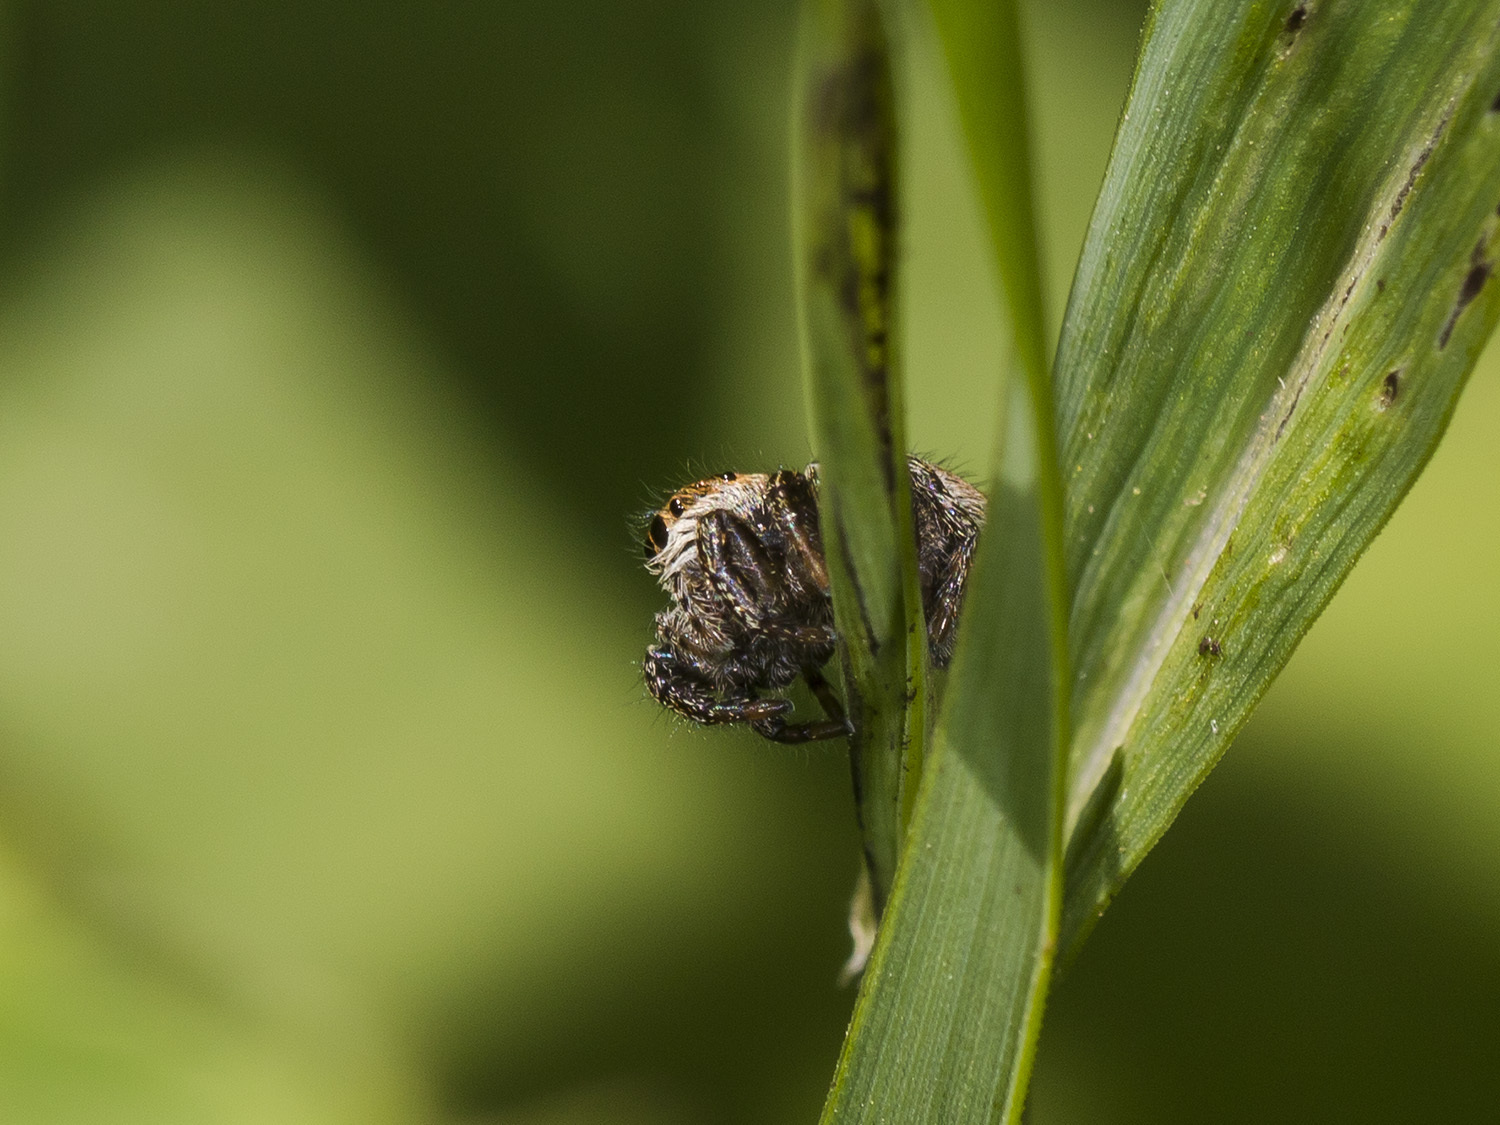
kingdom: Animalia
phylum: Arthropoda
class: Arachnida
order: Araneae
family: Salticidae
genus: Evarcha
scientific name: Evarcha arcuata
